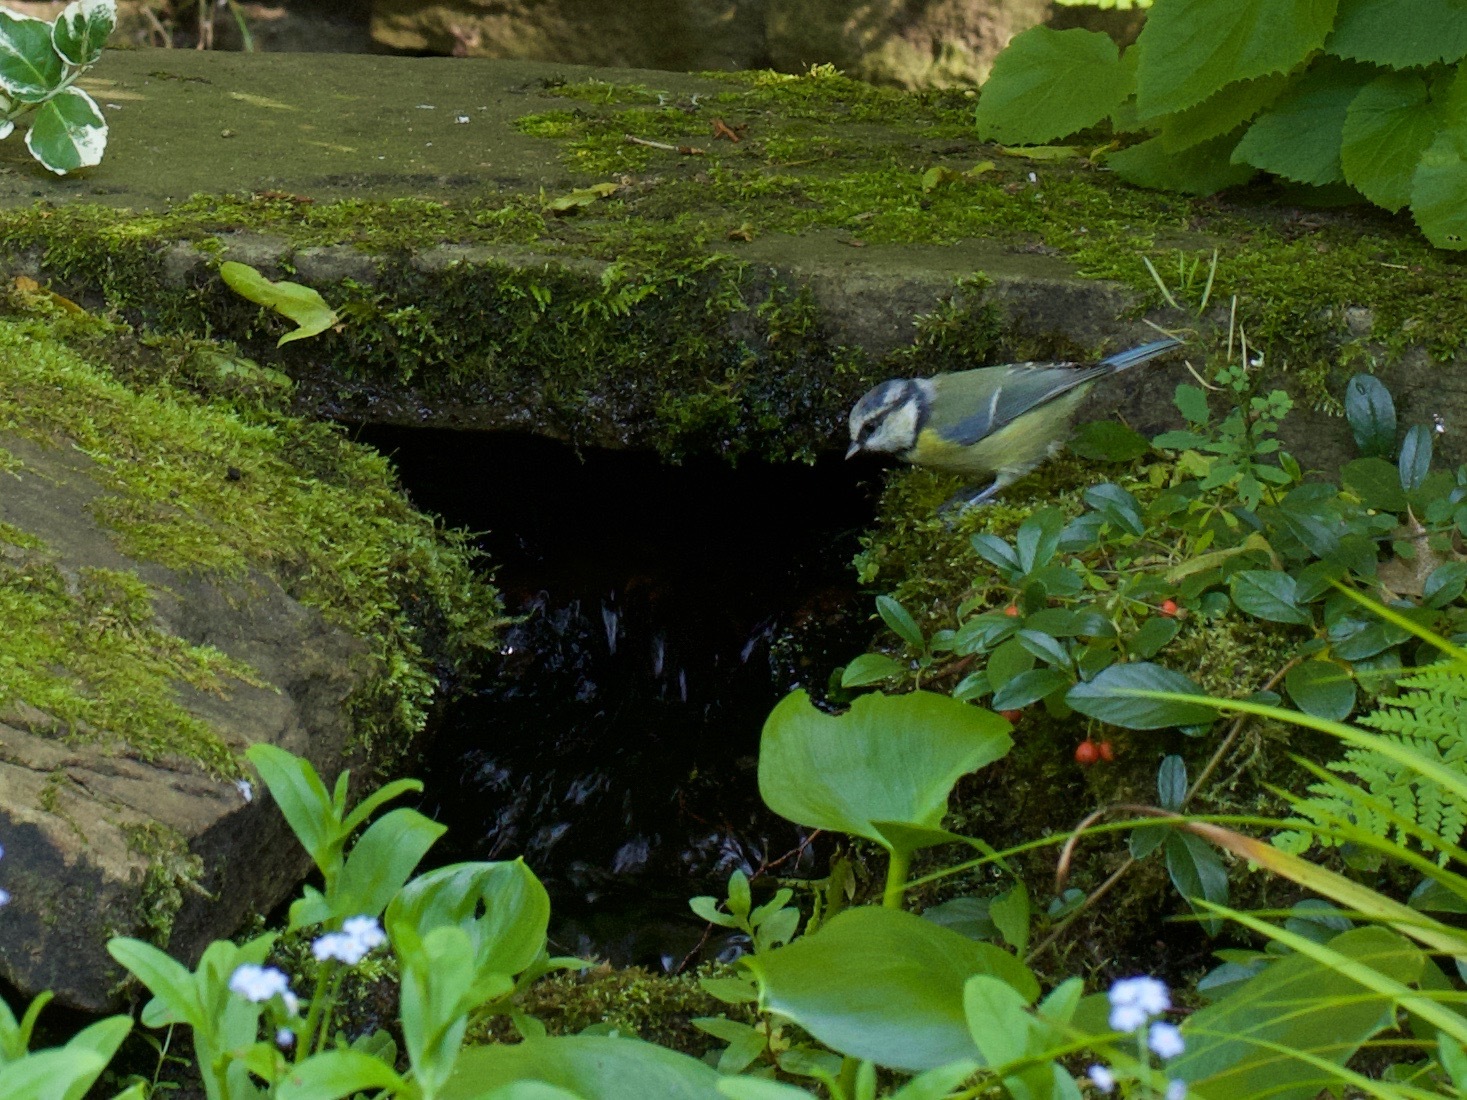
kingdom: Animalia
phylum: Chordata
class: Aves
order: Passeriformes
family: Paridae
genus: Cyanistes
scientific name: Cyanistes caeruleus
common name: Eurasian blue tit
